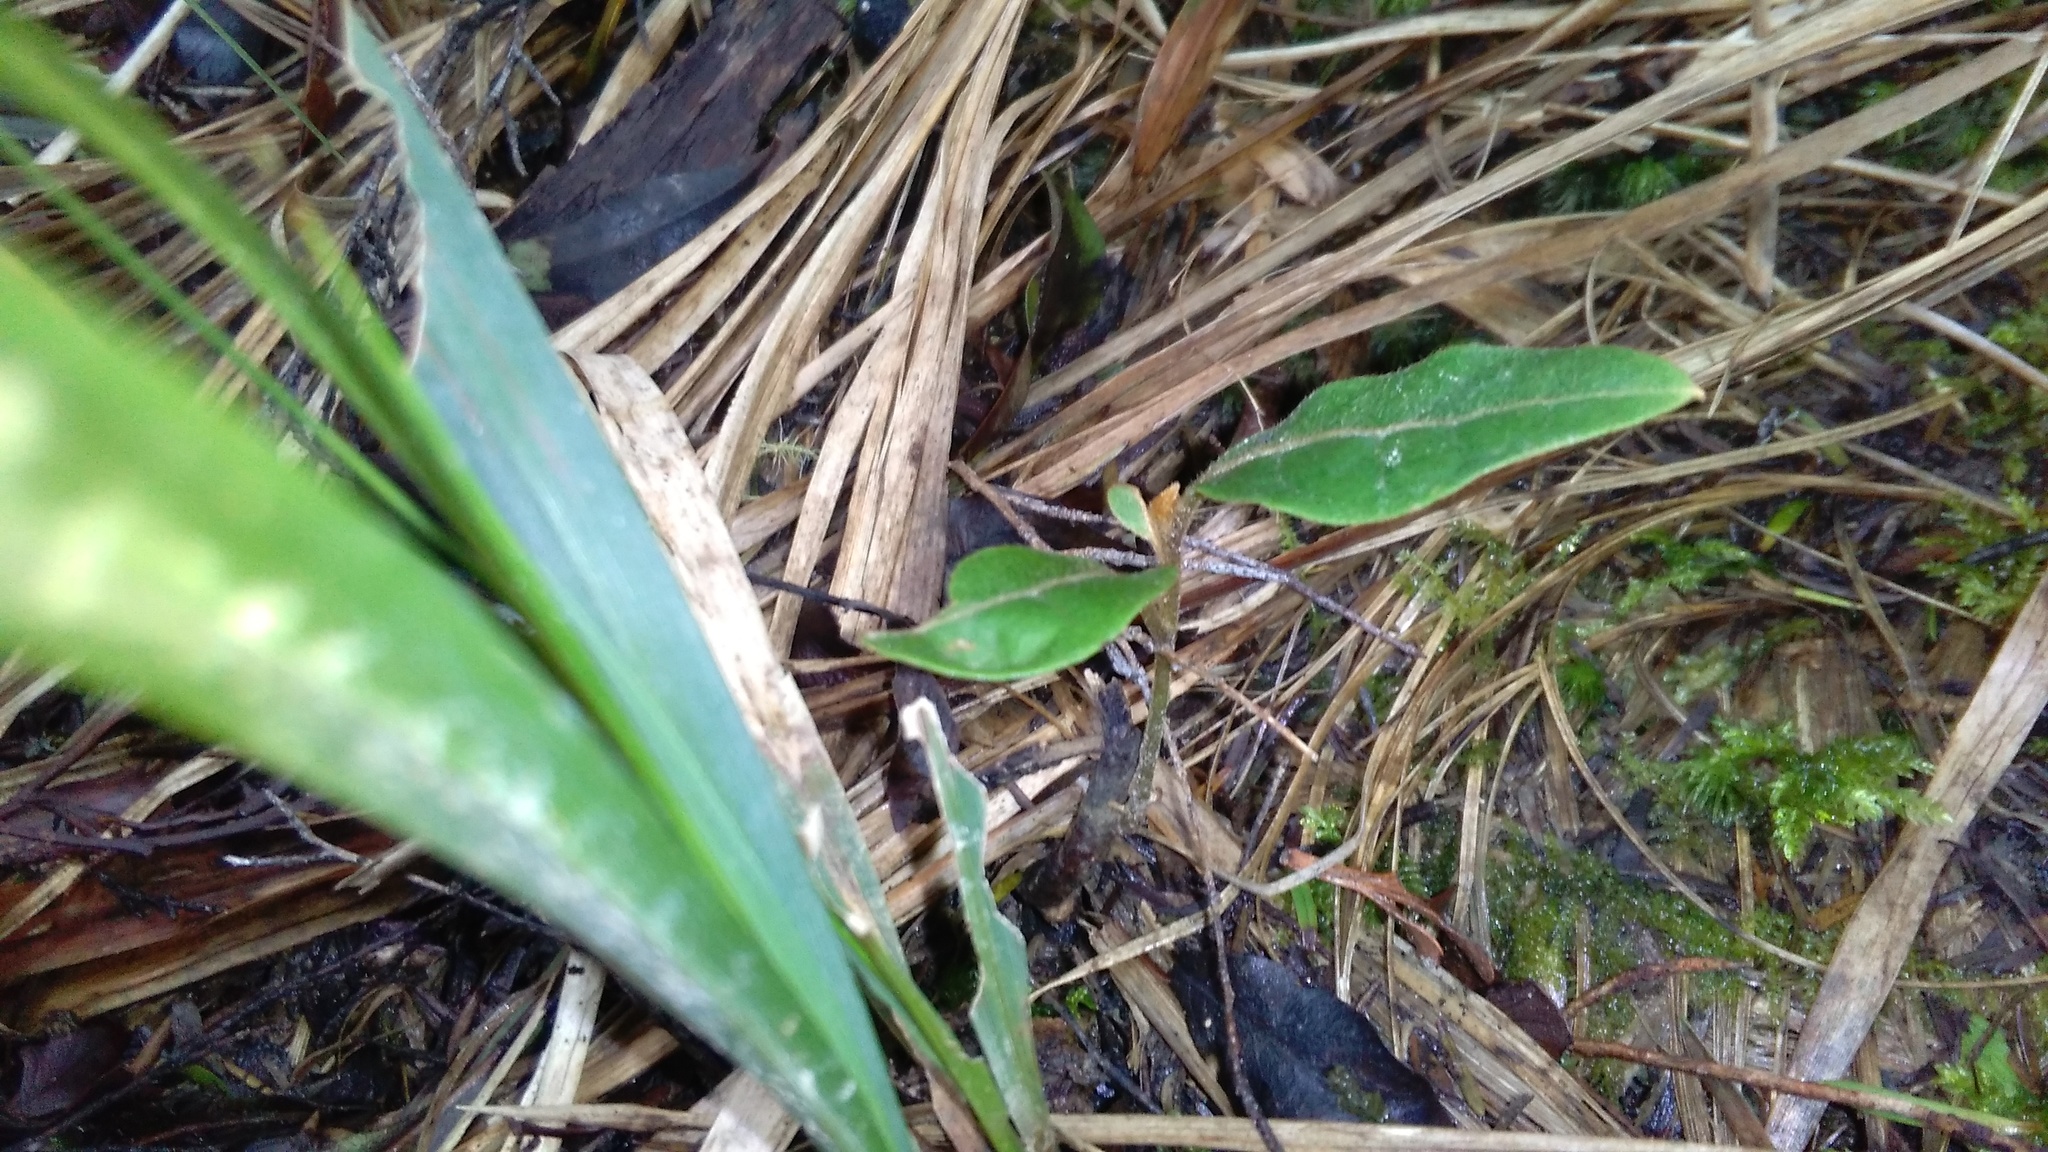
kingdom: Plantae
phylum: Tracheophyta
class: Magnoliopsida
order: Laurales
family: Lauraceae
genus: Beilschmiedia
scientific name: Beilschmiedia tarairi
